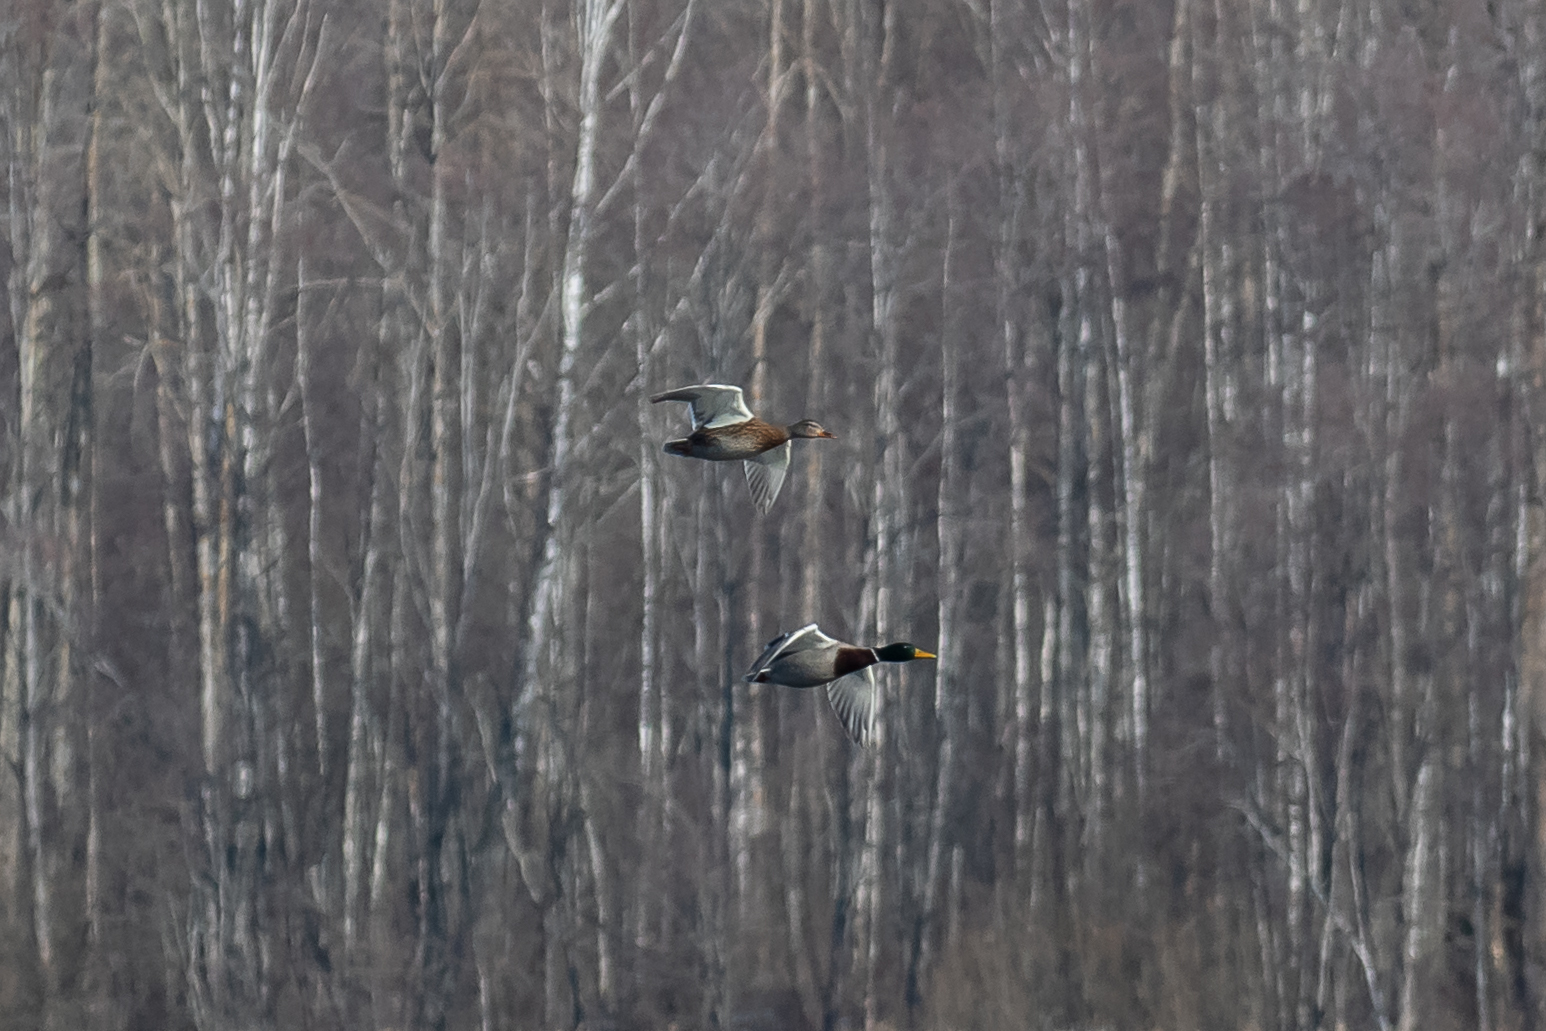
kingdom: Animalia
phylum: Chordata
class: Aves
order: Anseriformes
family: Anatidae
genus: Anas
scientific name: Anas platyrhynchos
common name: Mallard
